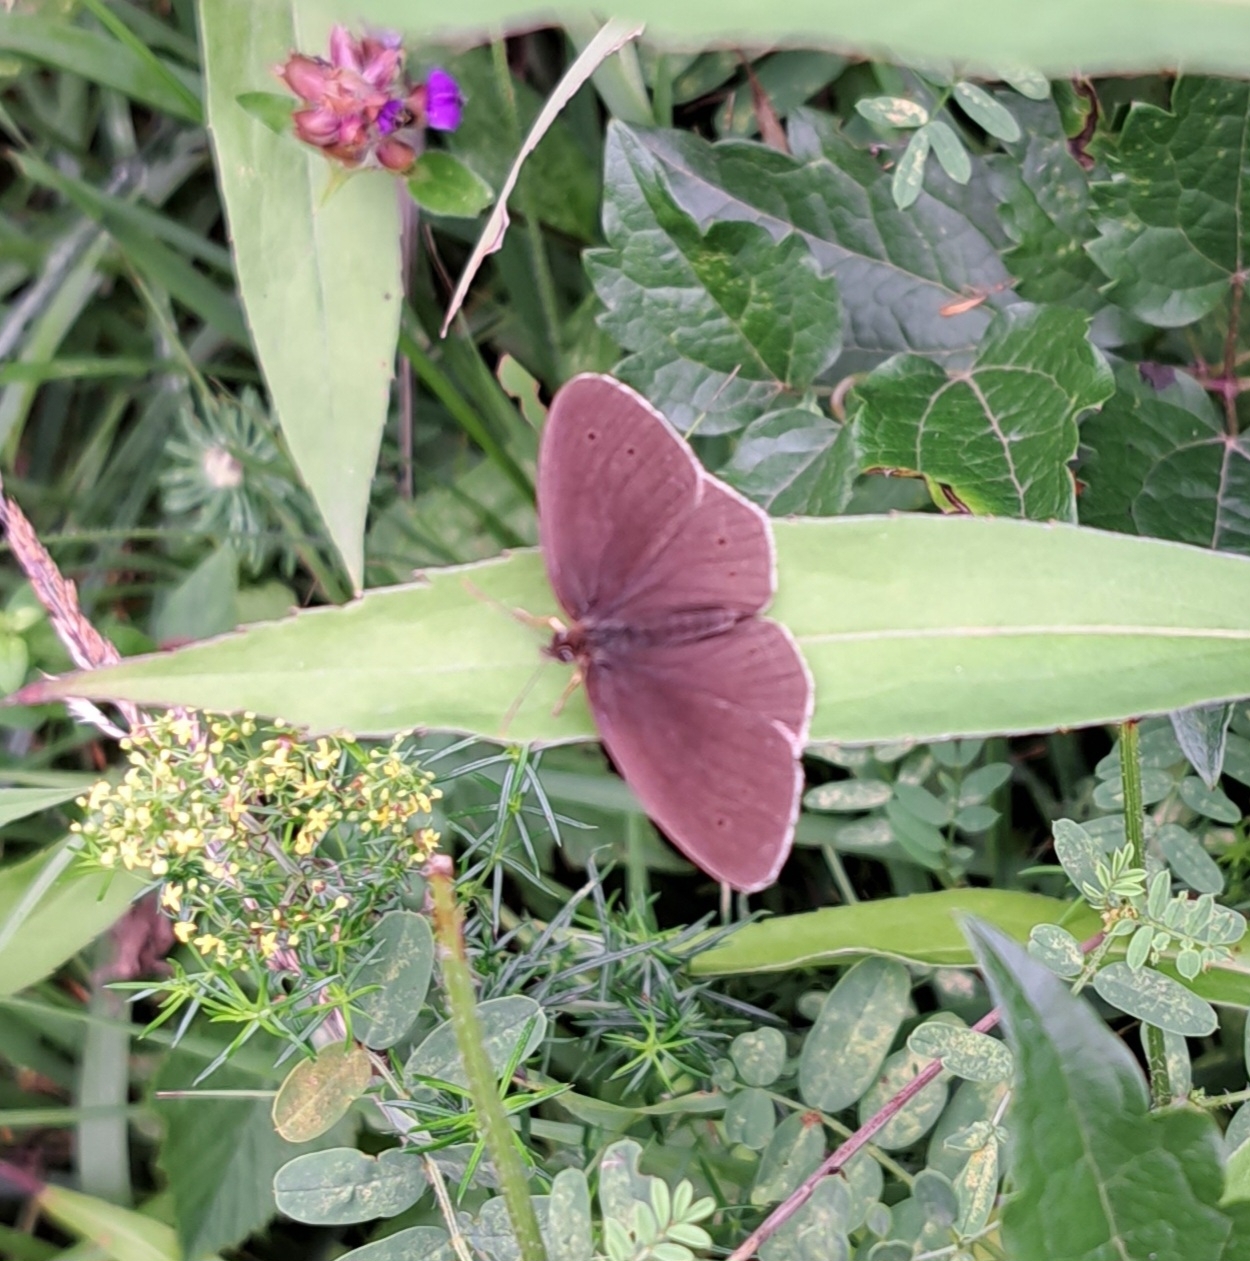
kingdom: Animalia
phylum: Arthropoda
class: Insecta
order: Lepidoptera
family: Nymphalidae
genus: Aphantopus
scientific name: Aphantopus hyperantus
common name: Ringlet
